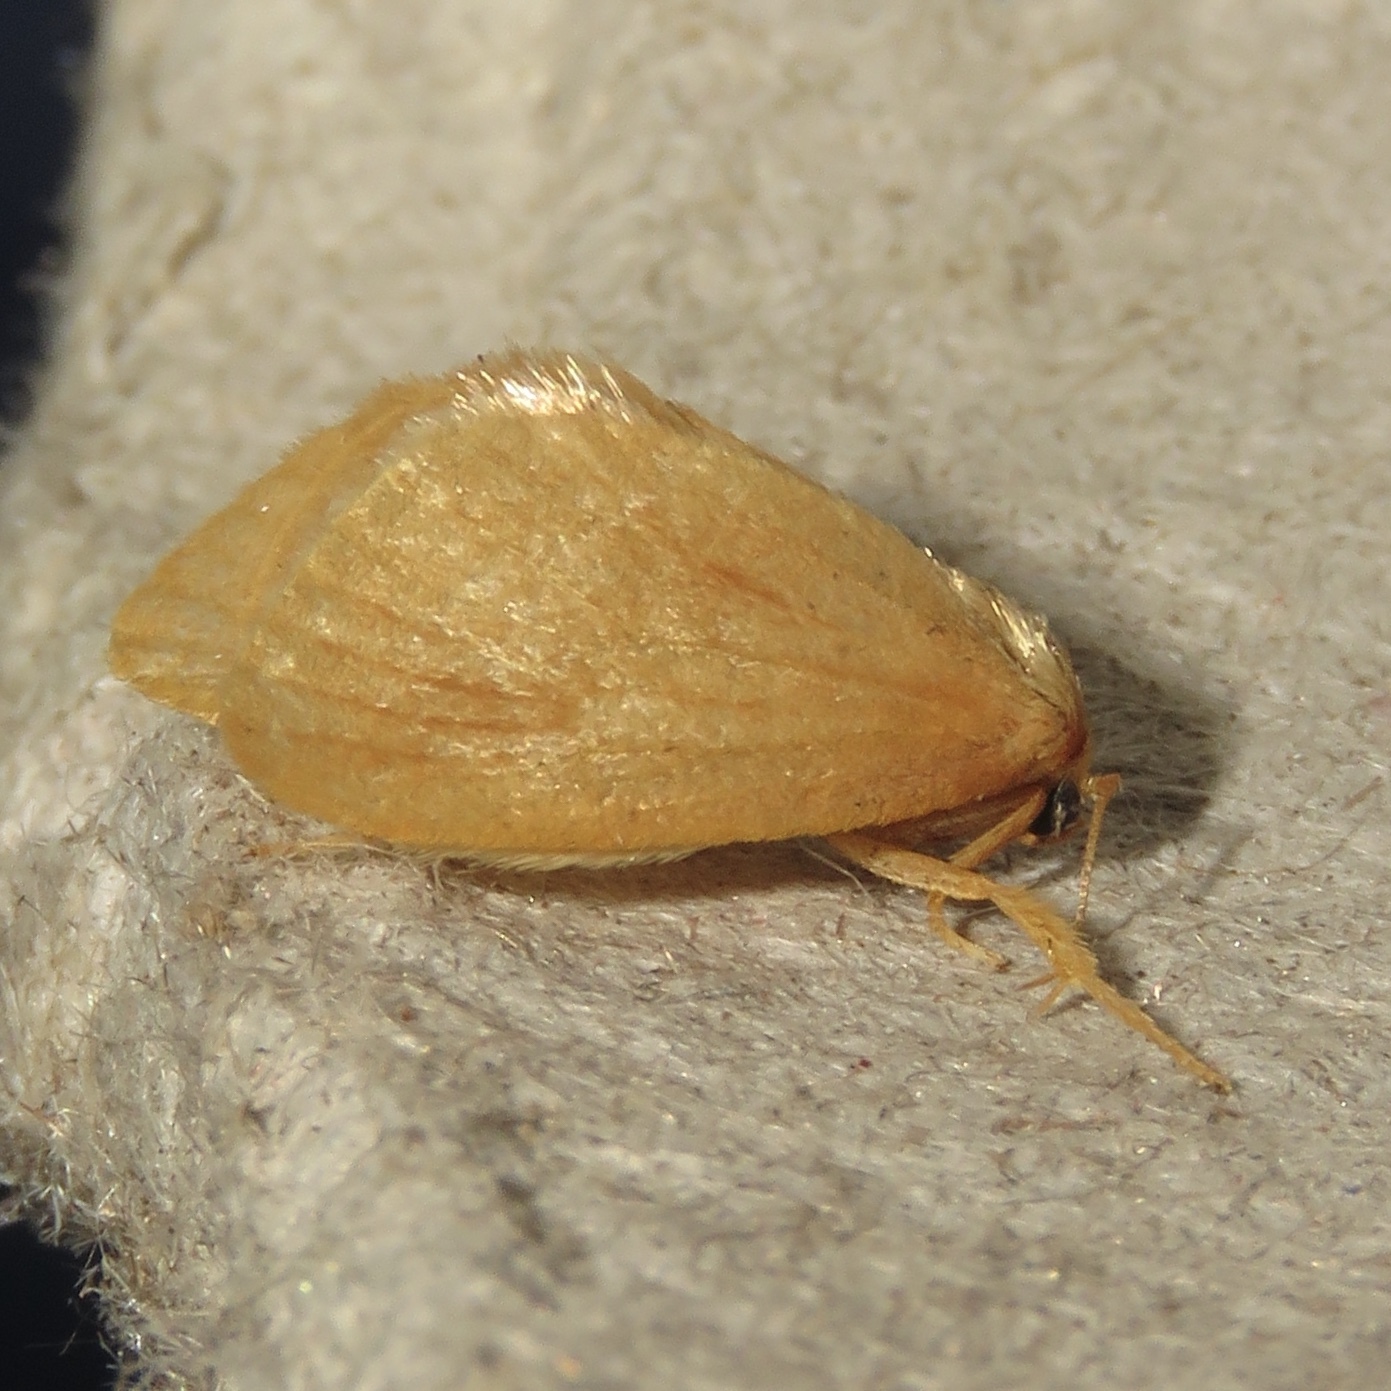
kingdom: Animalia
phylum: Arthropoda
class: Insecta
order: Lepidoptera
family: Limacodidae
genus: Tortricidia
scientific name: Tortricidia testacea
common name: Early button slug moth
